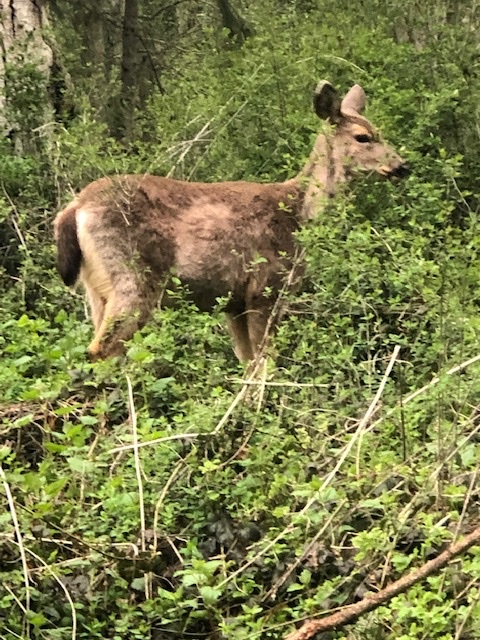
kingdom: Animalia
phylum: Chordata
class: Mammalia
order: Artiodactyla
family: Cervidae
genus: Odocoileus
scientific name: Odocoileus hemionus
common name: Mule deer
